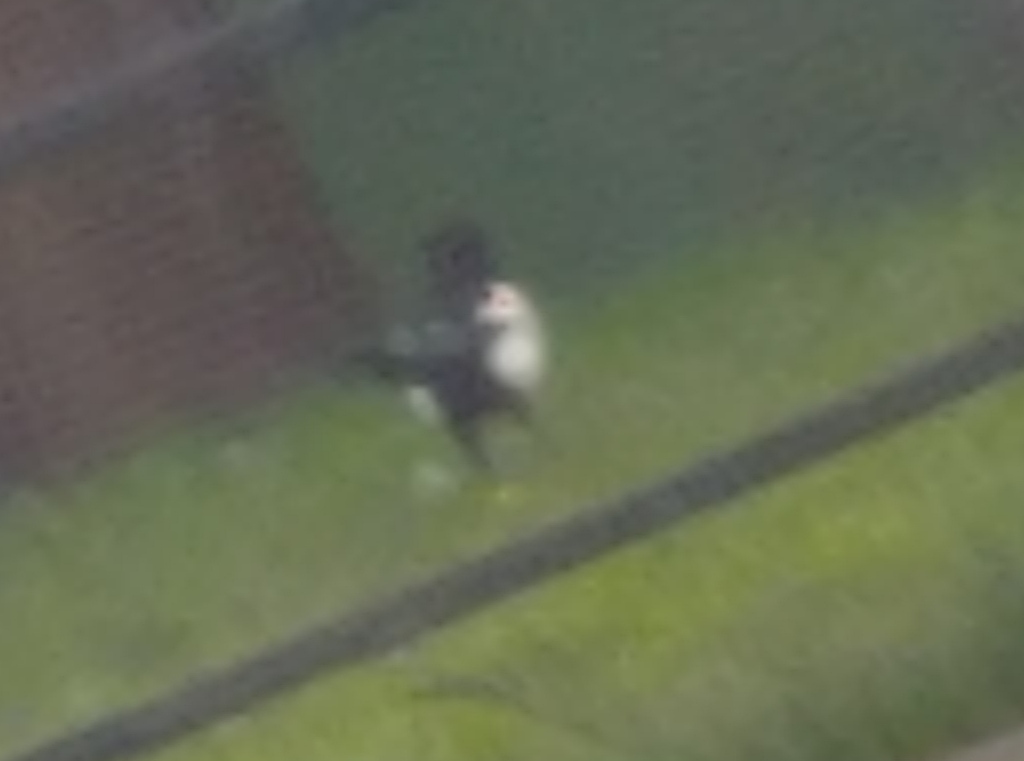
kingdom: Animalia
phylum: Chordata
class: Aves
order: Passeriformes
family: Corvidae
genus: Pica
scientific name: Pica pica
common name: Eurasian magpie
